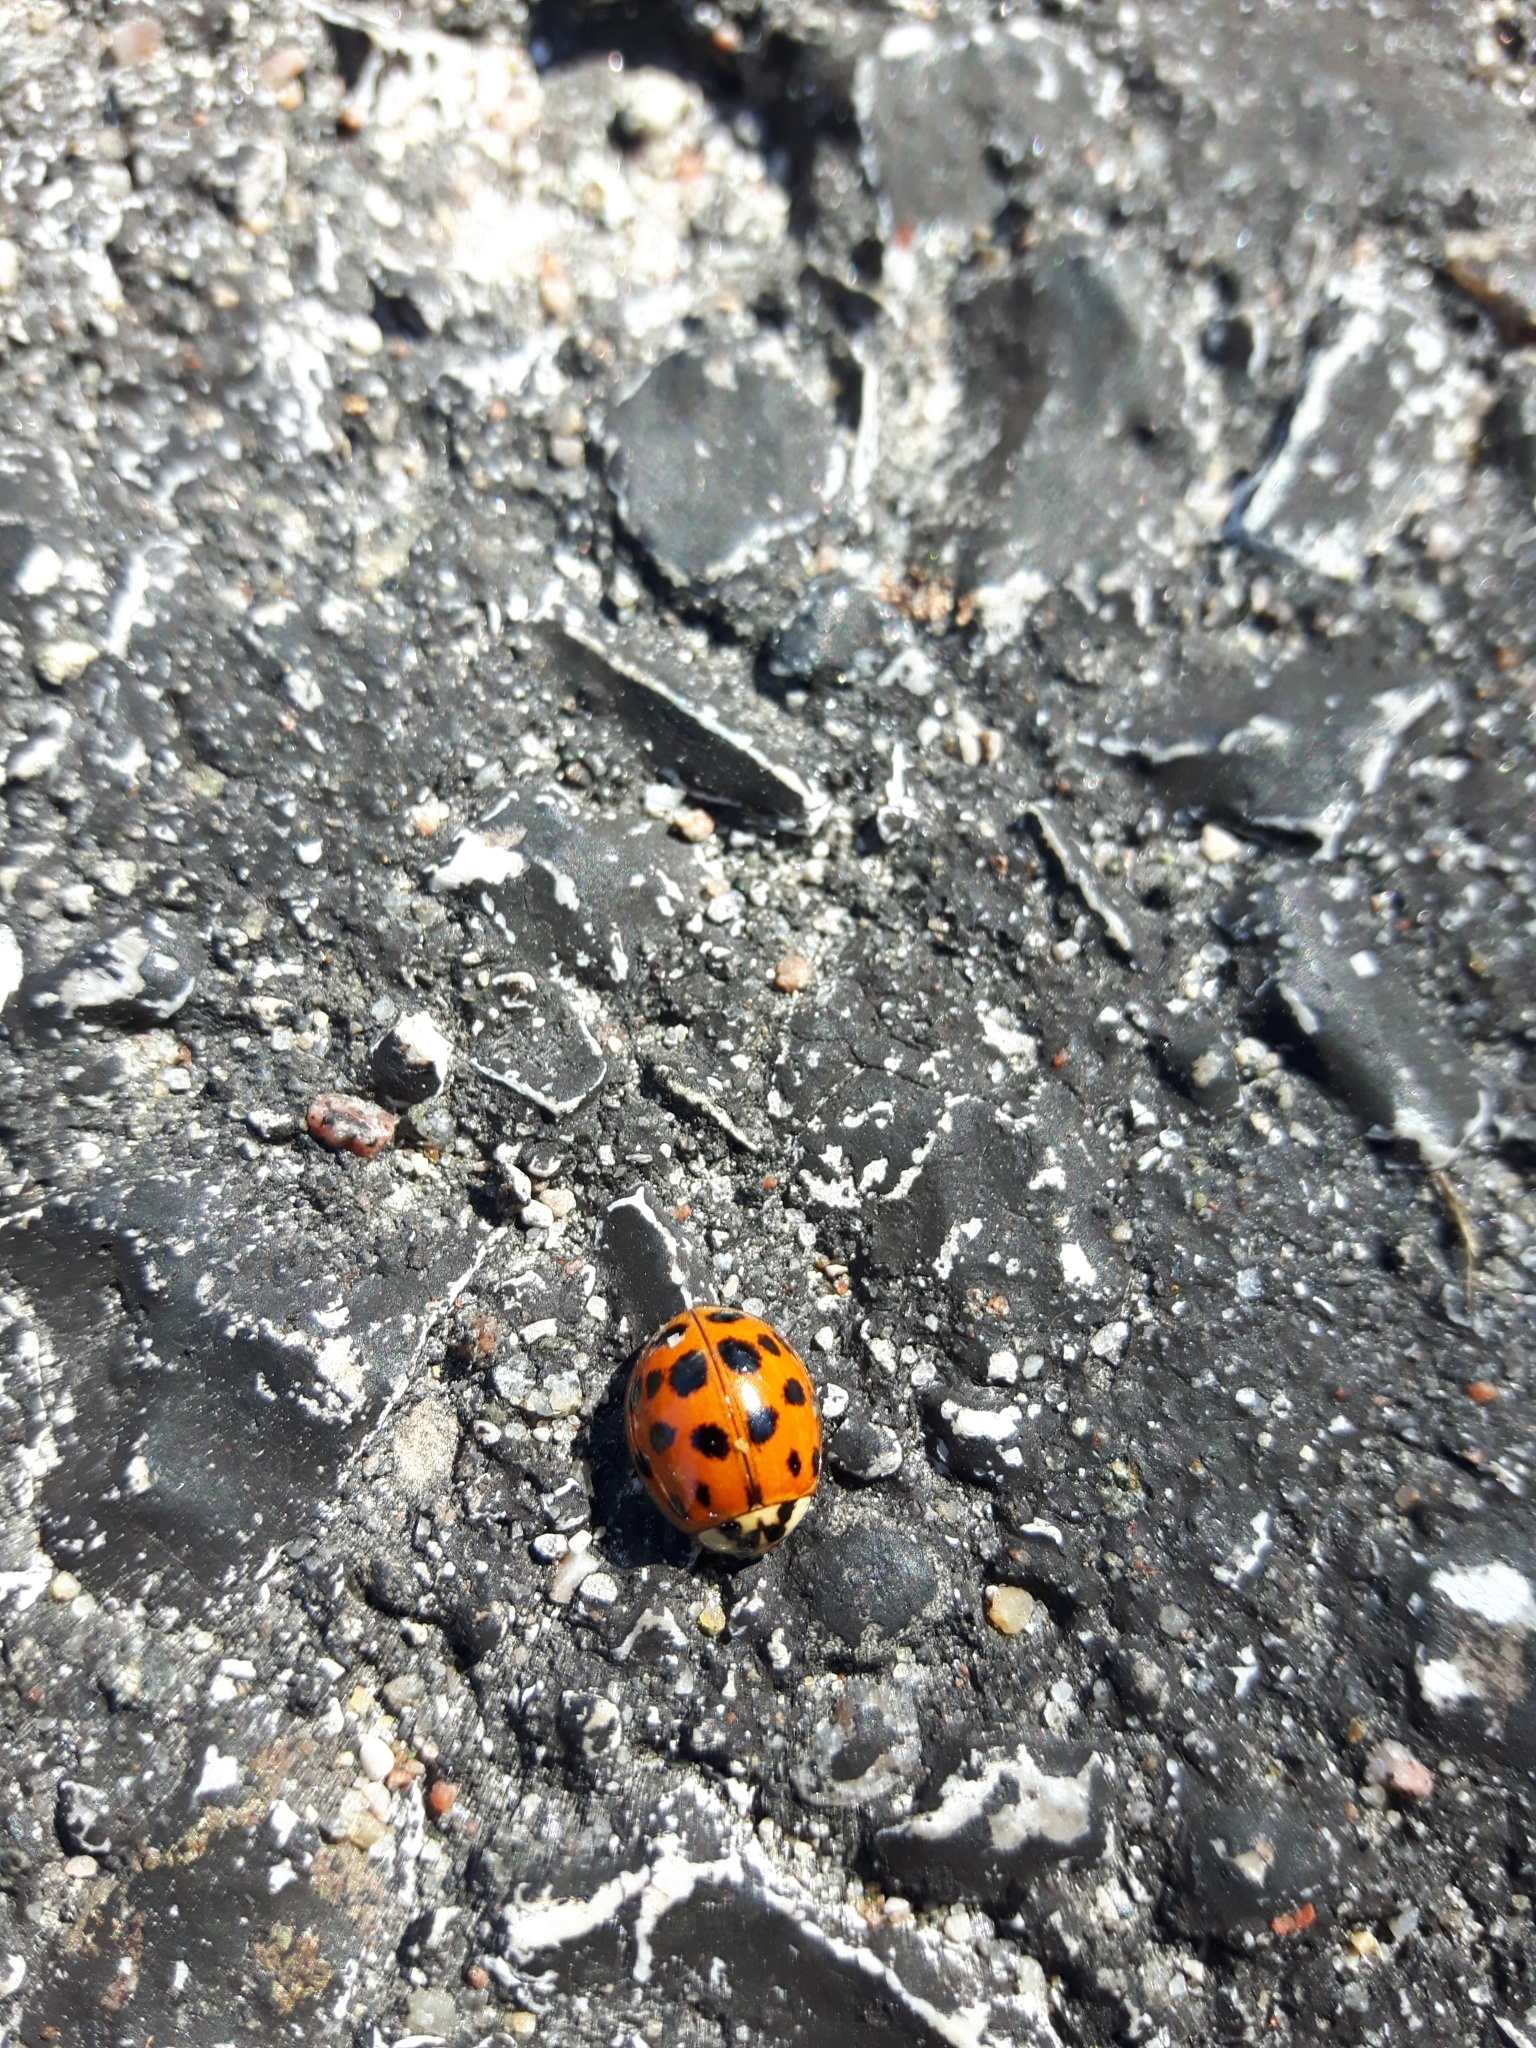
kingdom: Animalia
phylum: Arthropoda
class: Insecta
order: Coleoptera
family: Coccinellidae
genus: Harmonia
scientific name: Harmonia axyridis
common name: Harlequin ladybird
